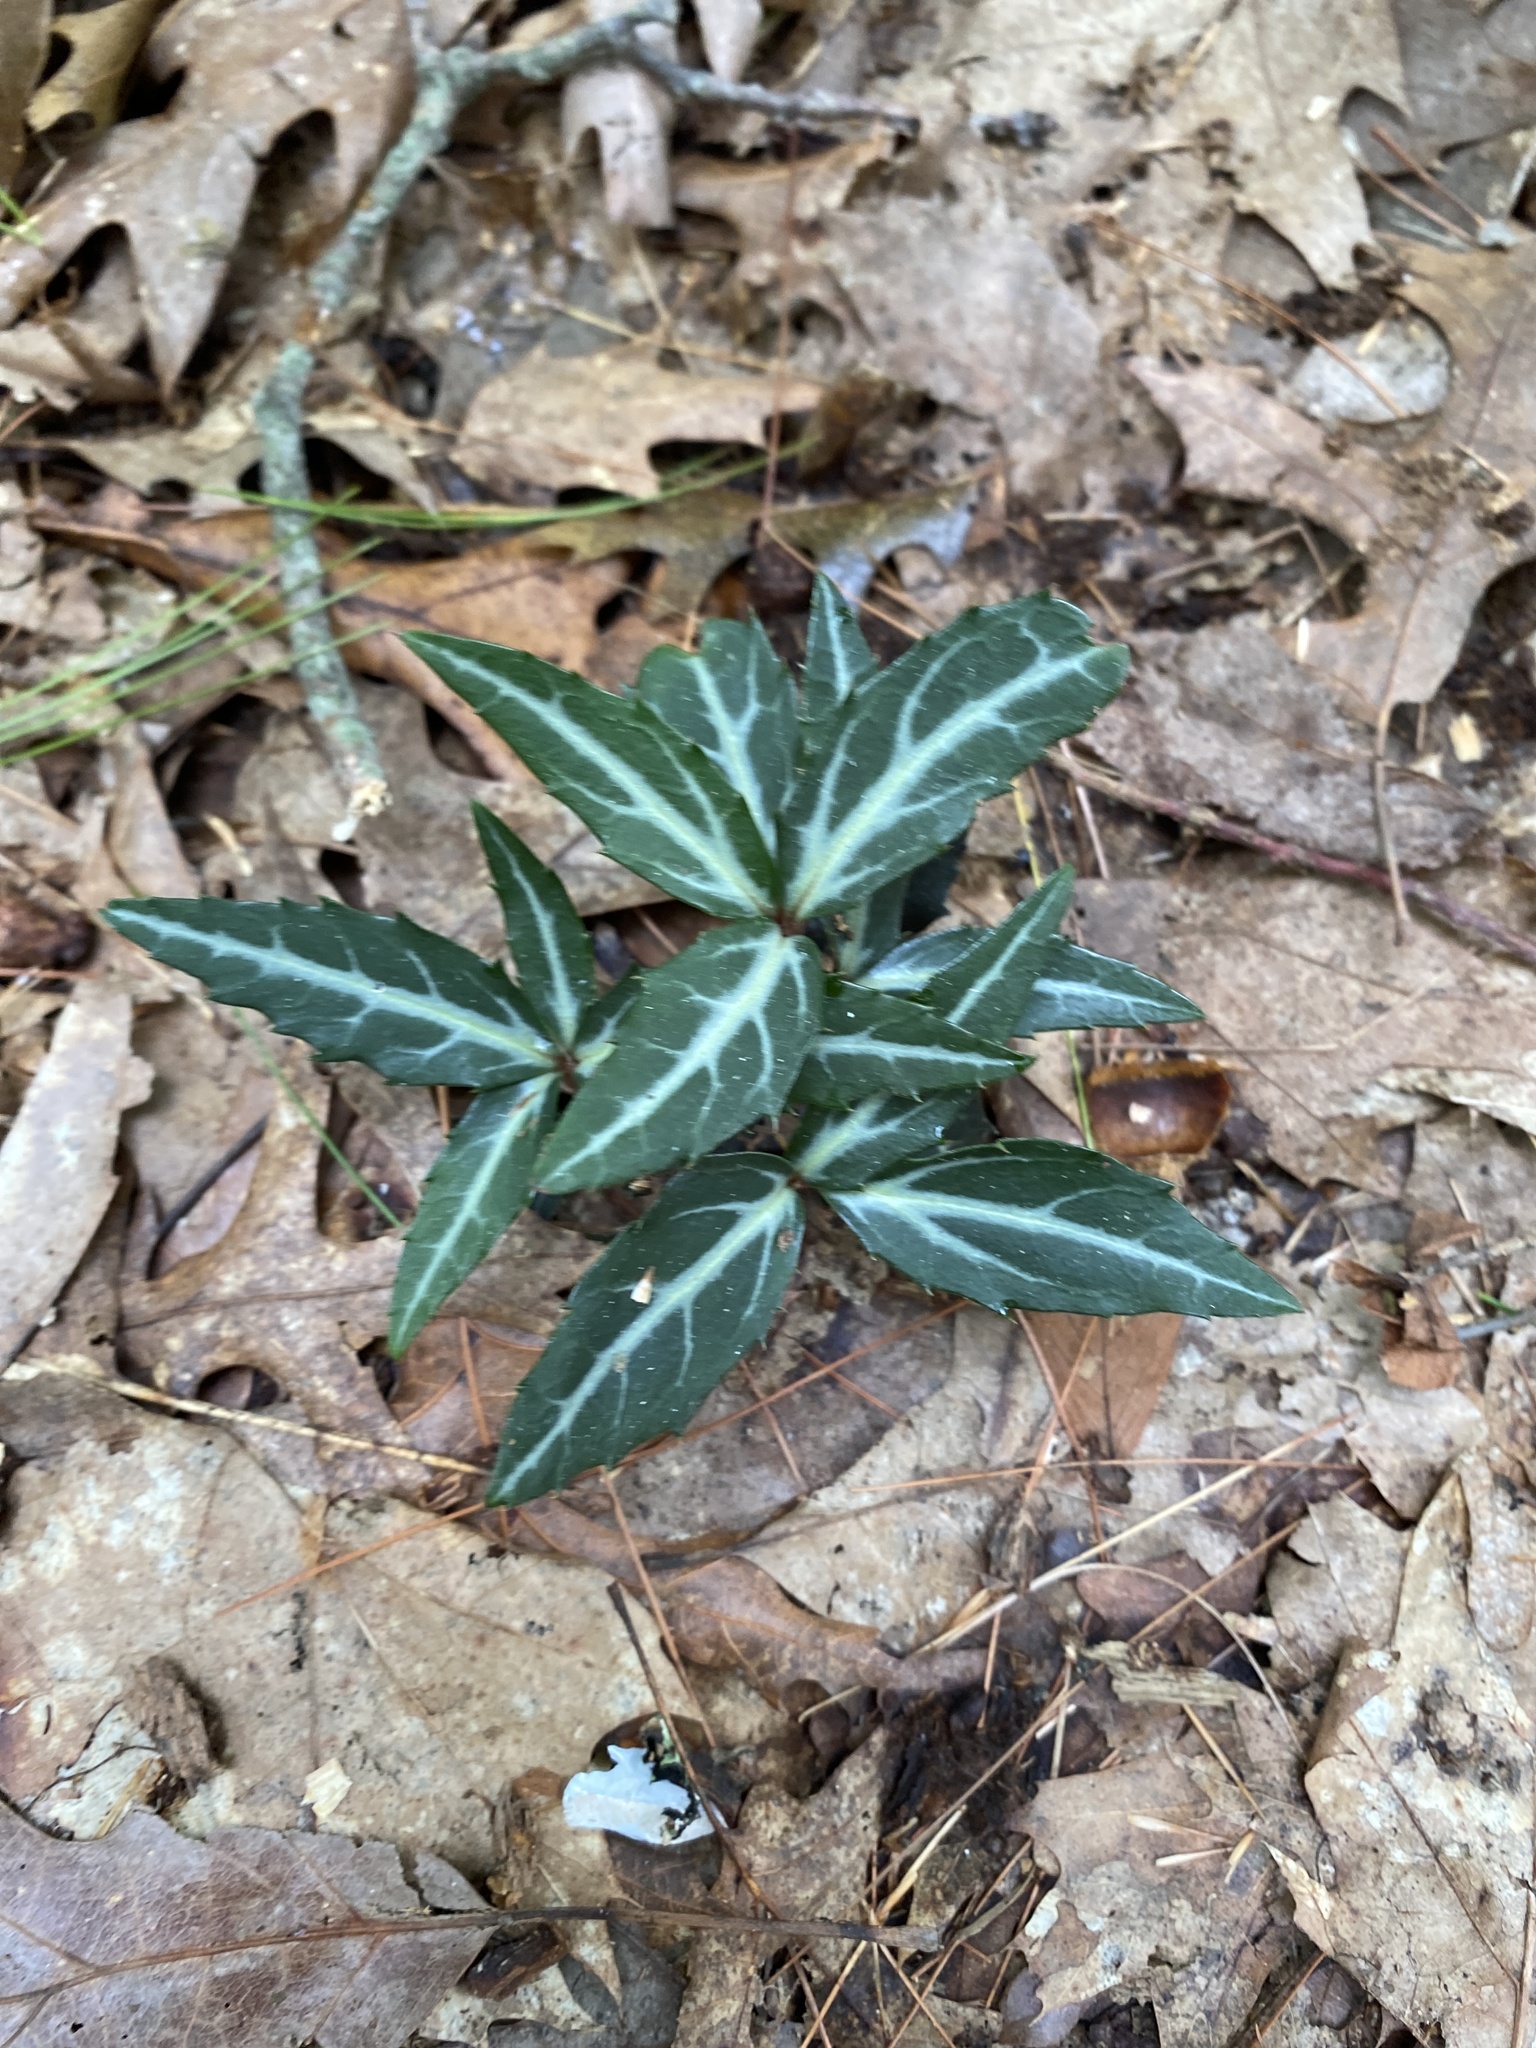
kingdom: Plantae
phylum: Tracheophyta
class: Magnoliopsida
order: Ericales
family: Ericaceae
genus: Chimaphila
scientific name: Chimaphila maculata
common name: Spotted pipsissewa
